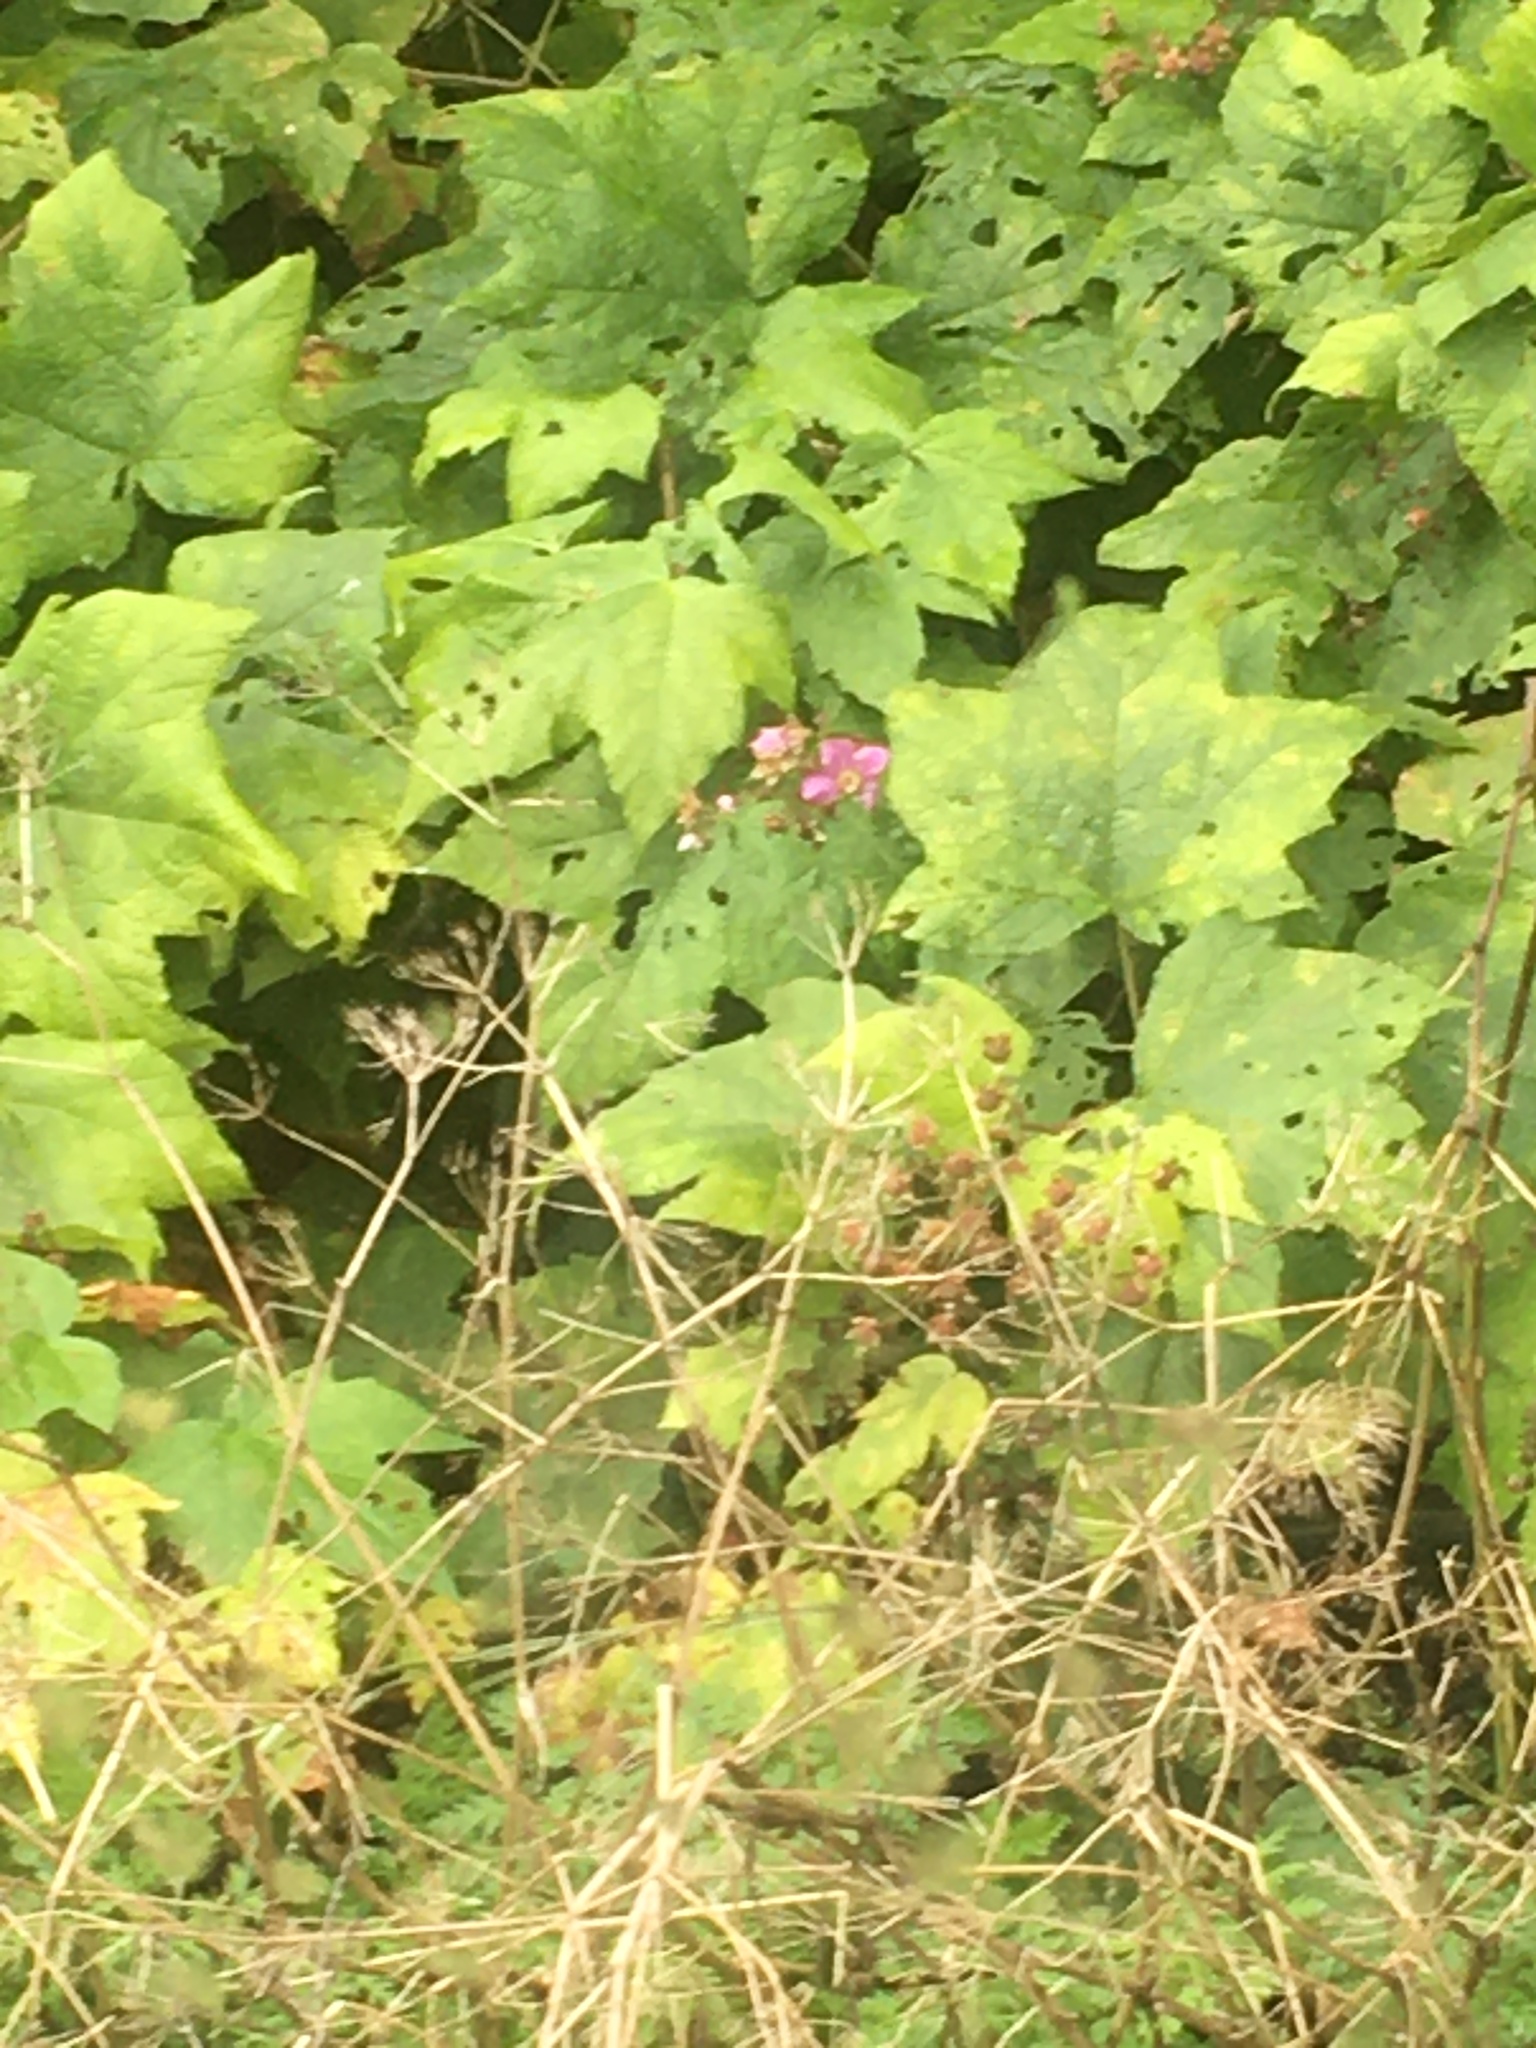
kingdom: Plantae
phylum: Tracheophyta
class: Magnoliopsida
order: Rosales
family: Rosaceae
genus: Rubus
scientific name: Rubus odoratus
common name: Purple-flowered raspberry
